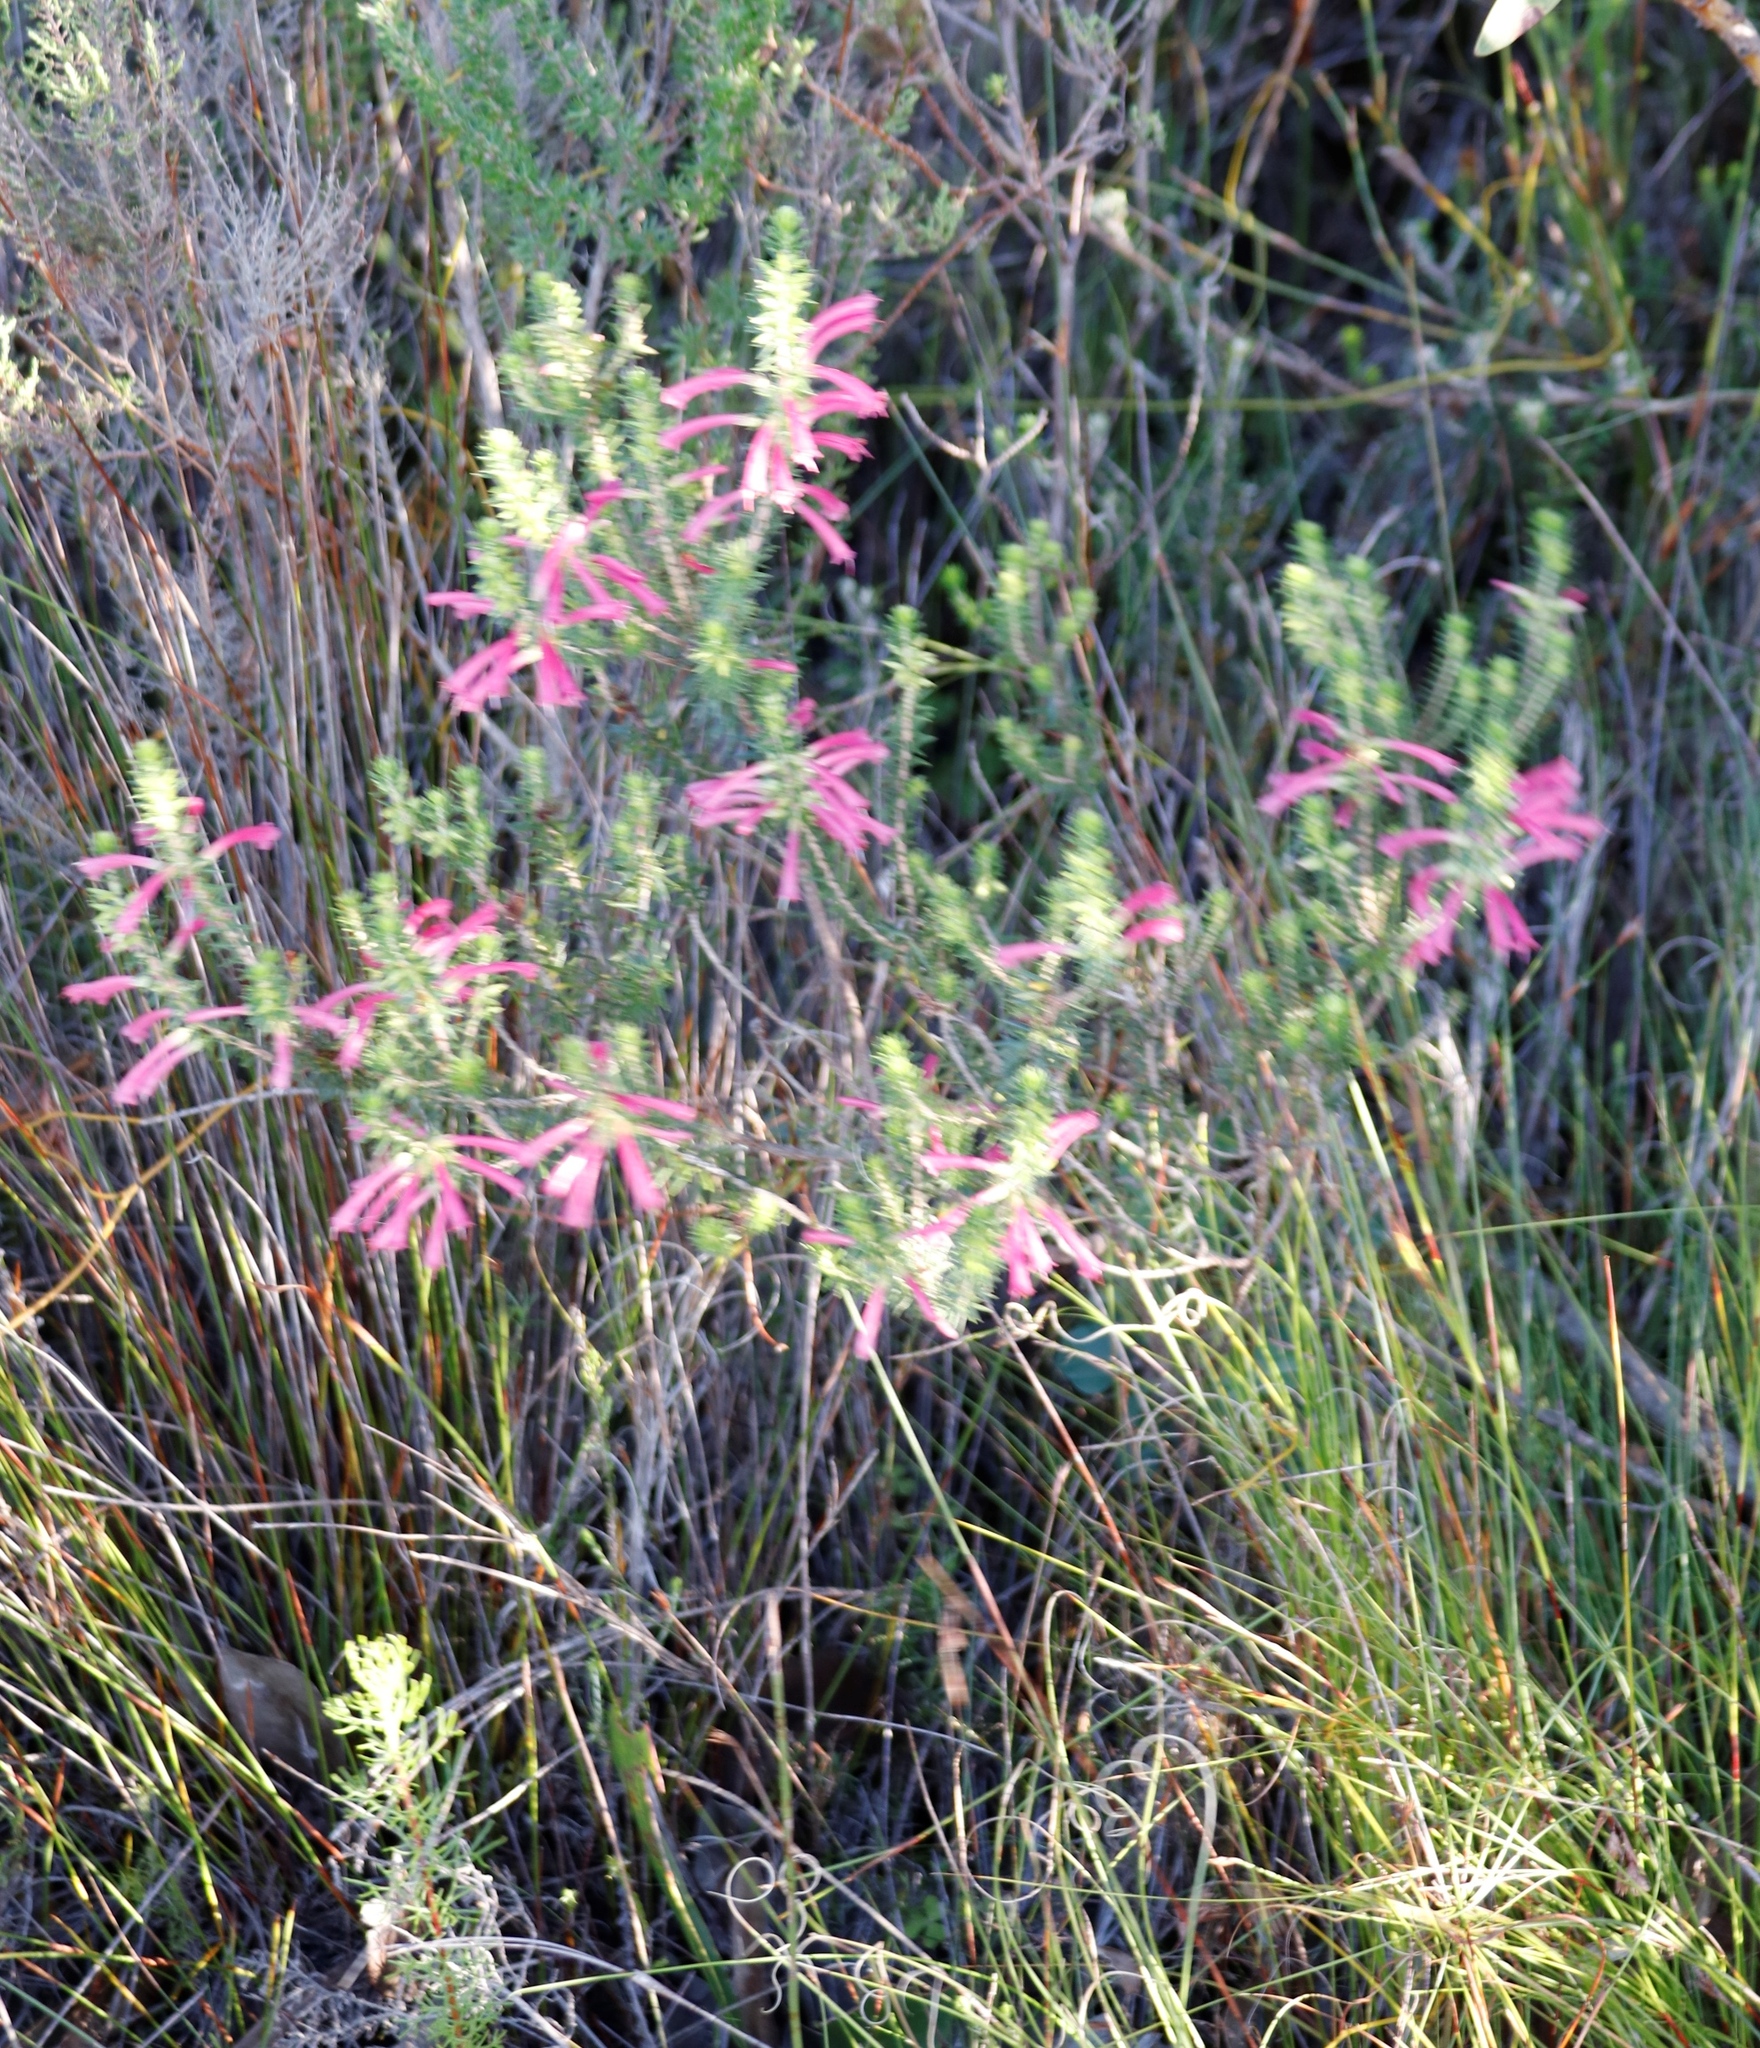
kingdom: Plantae
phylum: Tracheophyta
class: Magnoliopsida
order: Ericales
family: Ericaceae
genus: Erica
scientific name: Erica abietina
